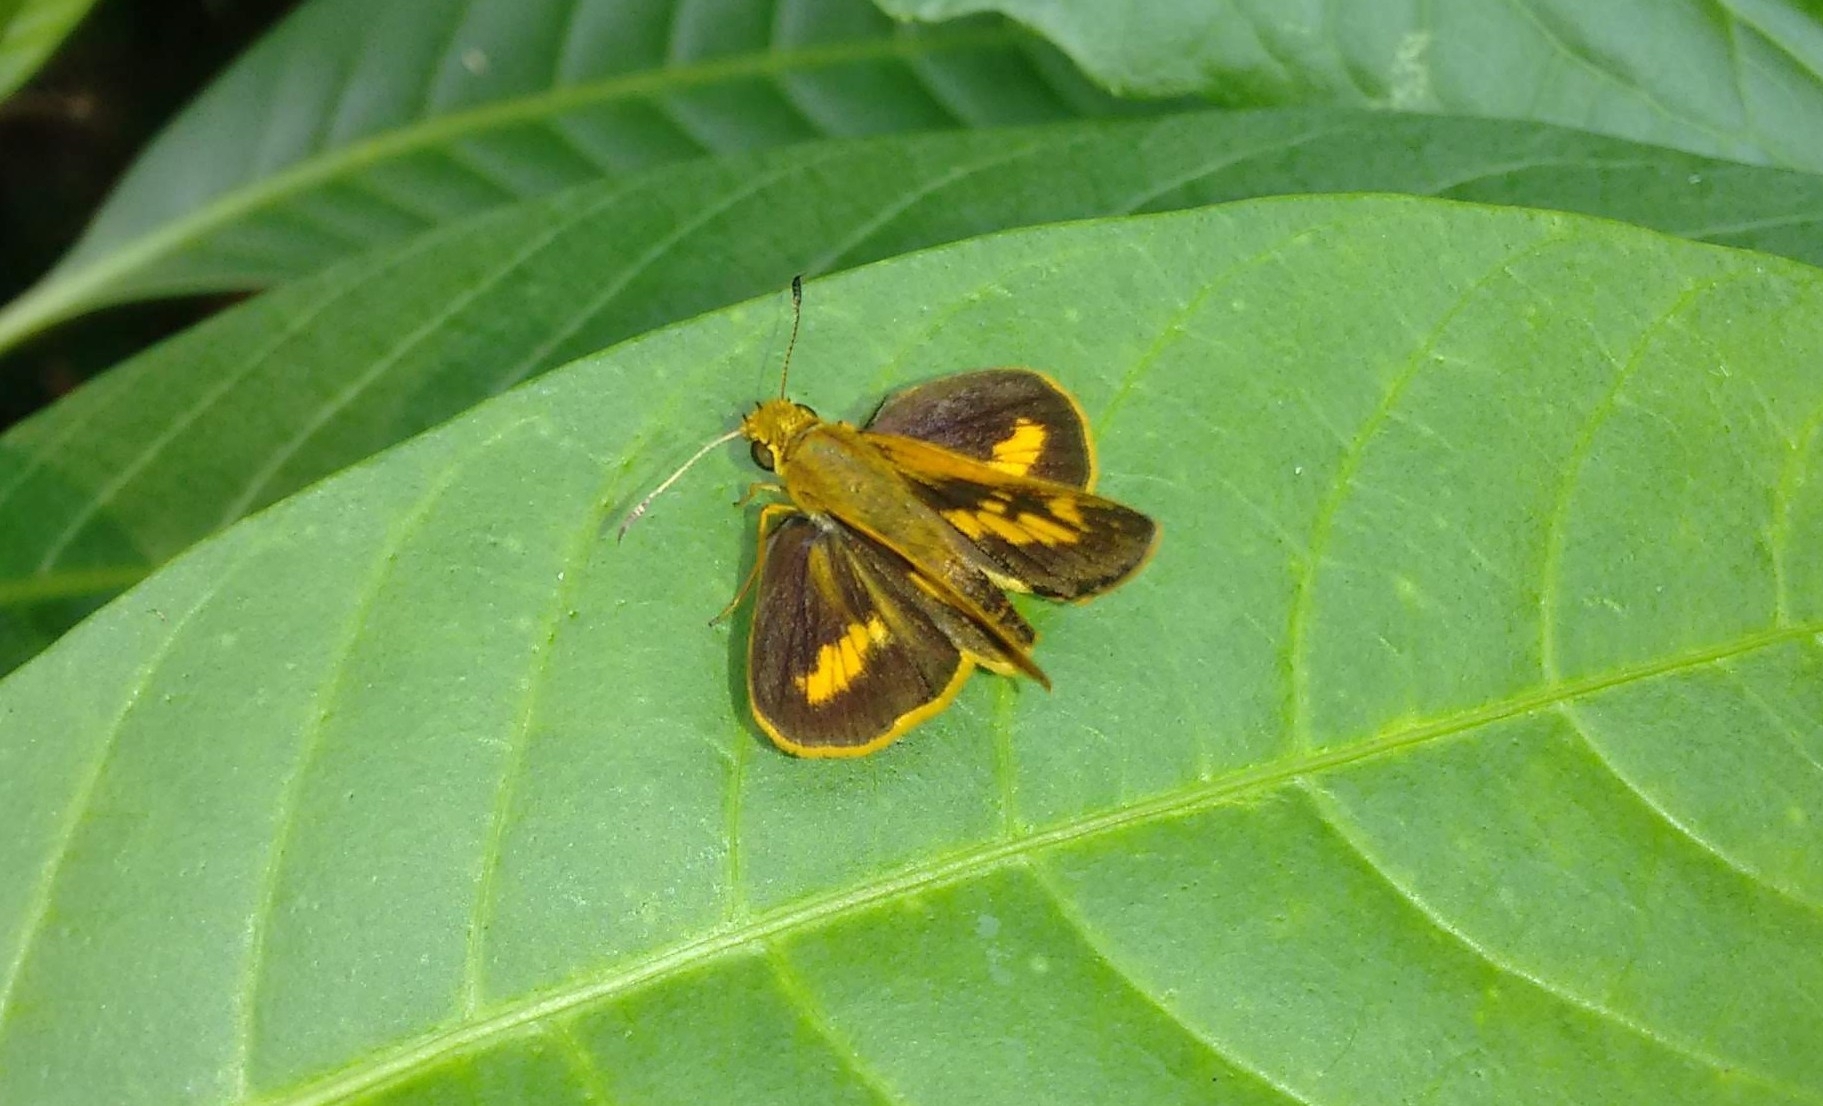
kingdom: Animalia
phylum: Arthropoda
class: Insecta
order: Lepidoptera
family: Hesperiidae
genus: Oriens
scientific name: Oriens goloides
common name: Smaller dartlet
